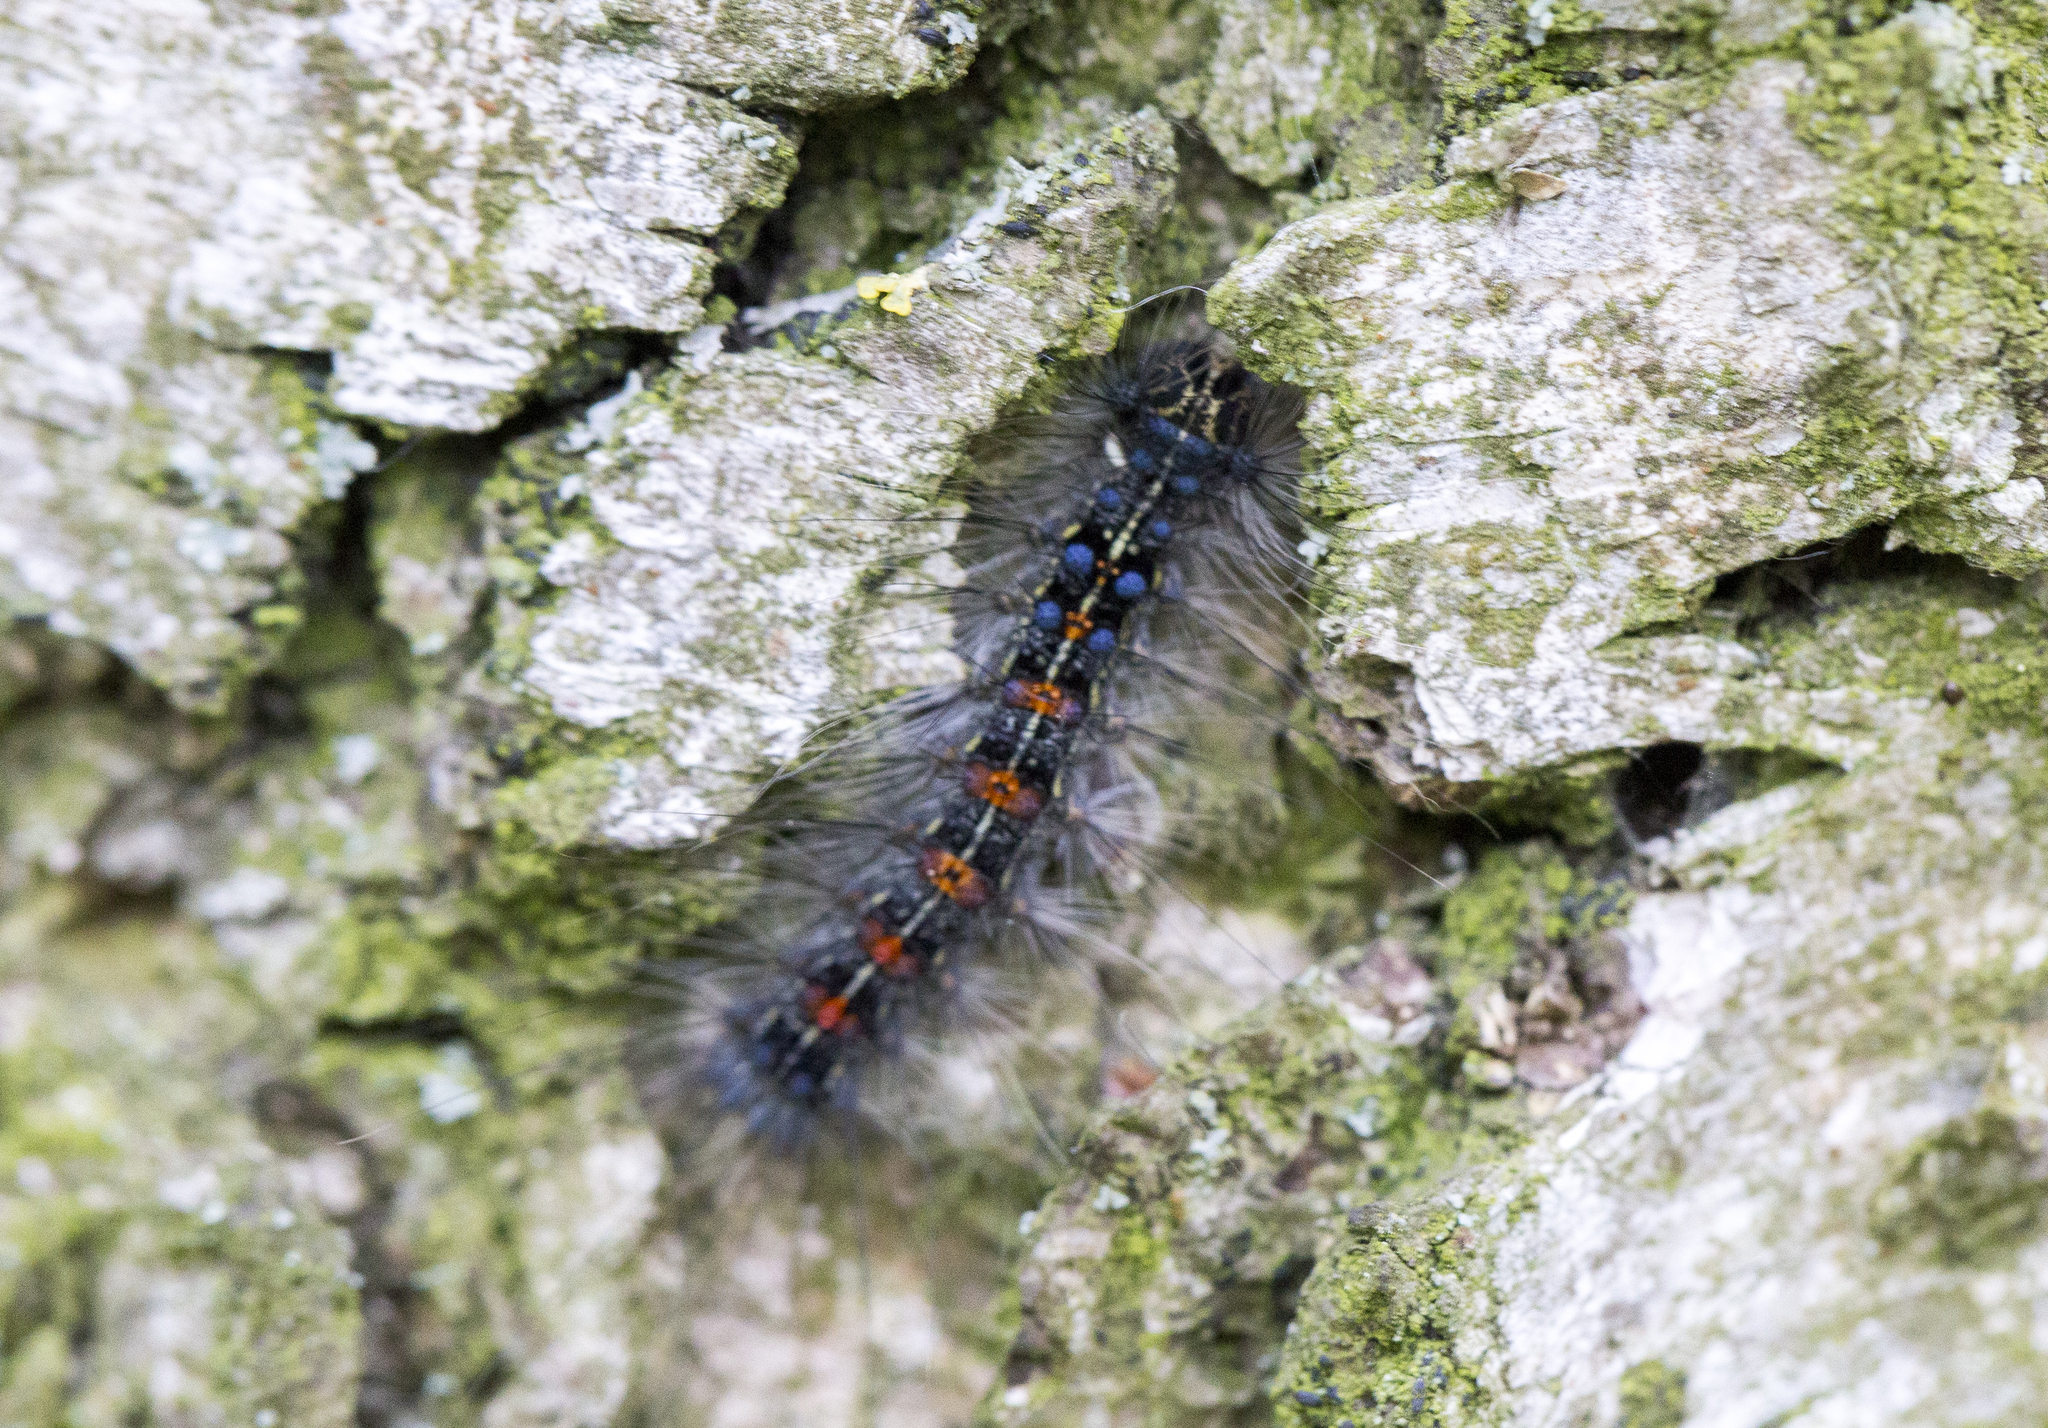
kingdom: Animalia
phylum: Arthropoda
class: Insecta
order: Lepidoptera
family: Erebidae
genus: Lymantria
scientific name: Lymantria dispar
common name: Gypsy moth
